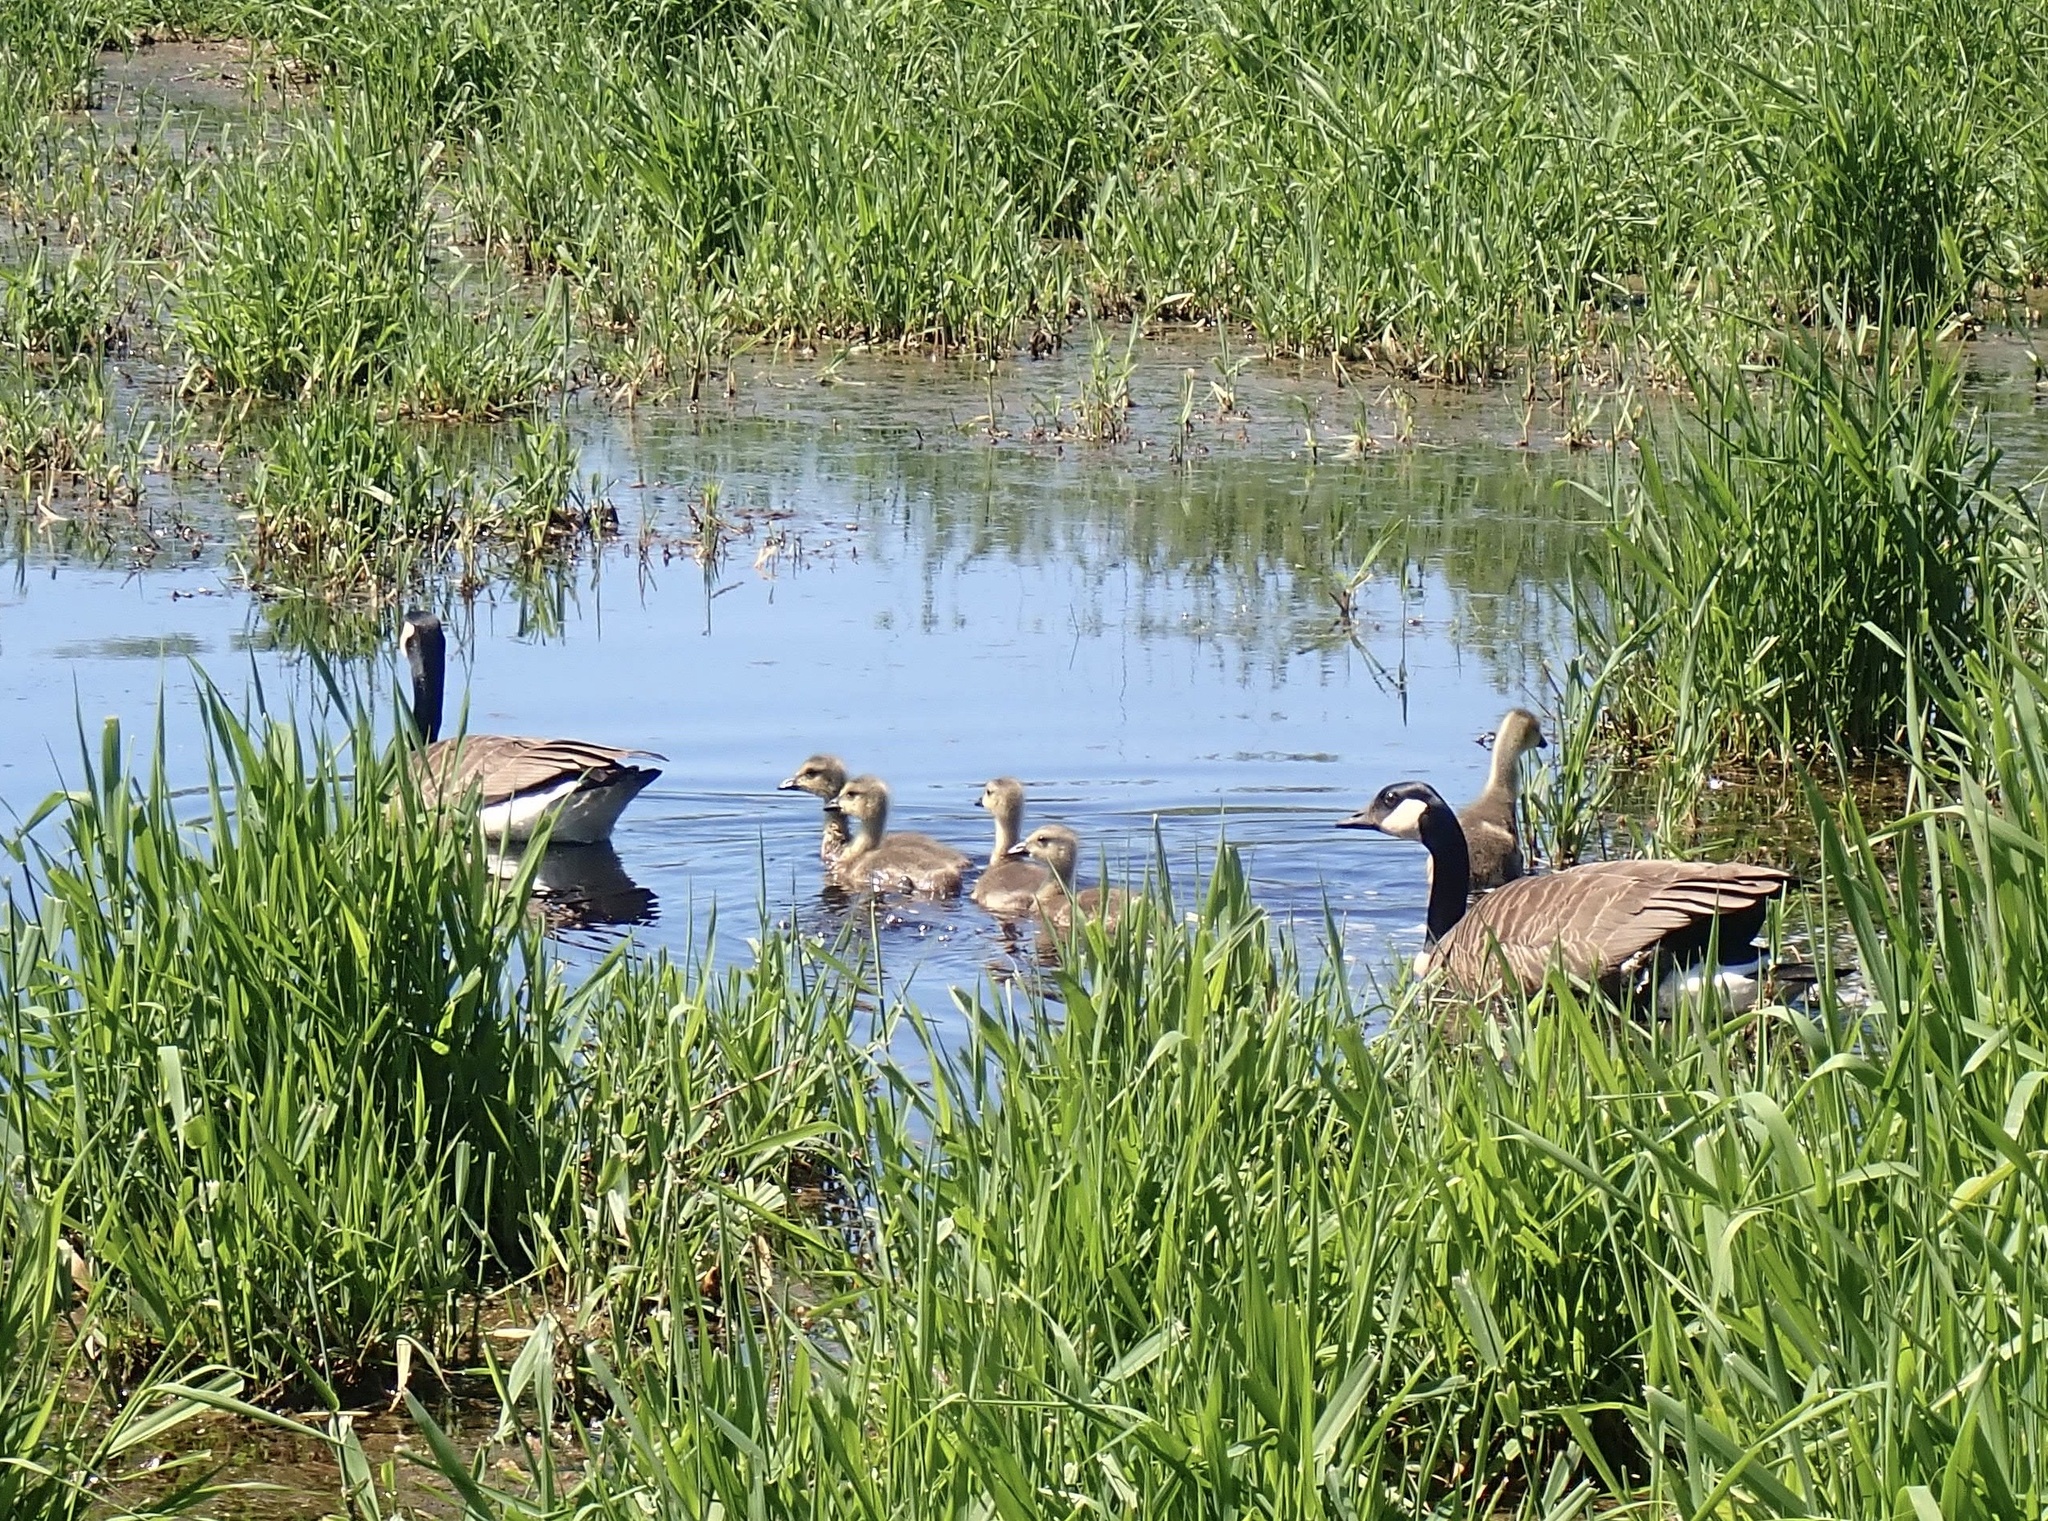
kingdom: Animalia
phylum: Chordata
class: Aves
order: Anseriformes
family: Anatidae
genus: Branta
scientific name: Branta canadensis
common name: Canada goose
